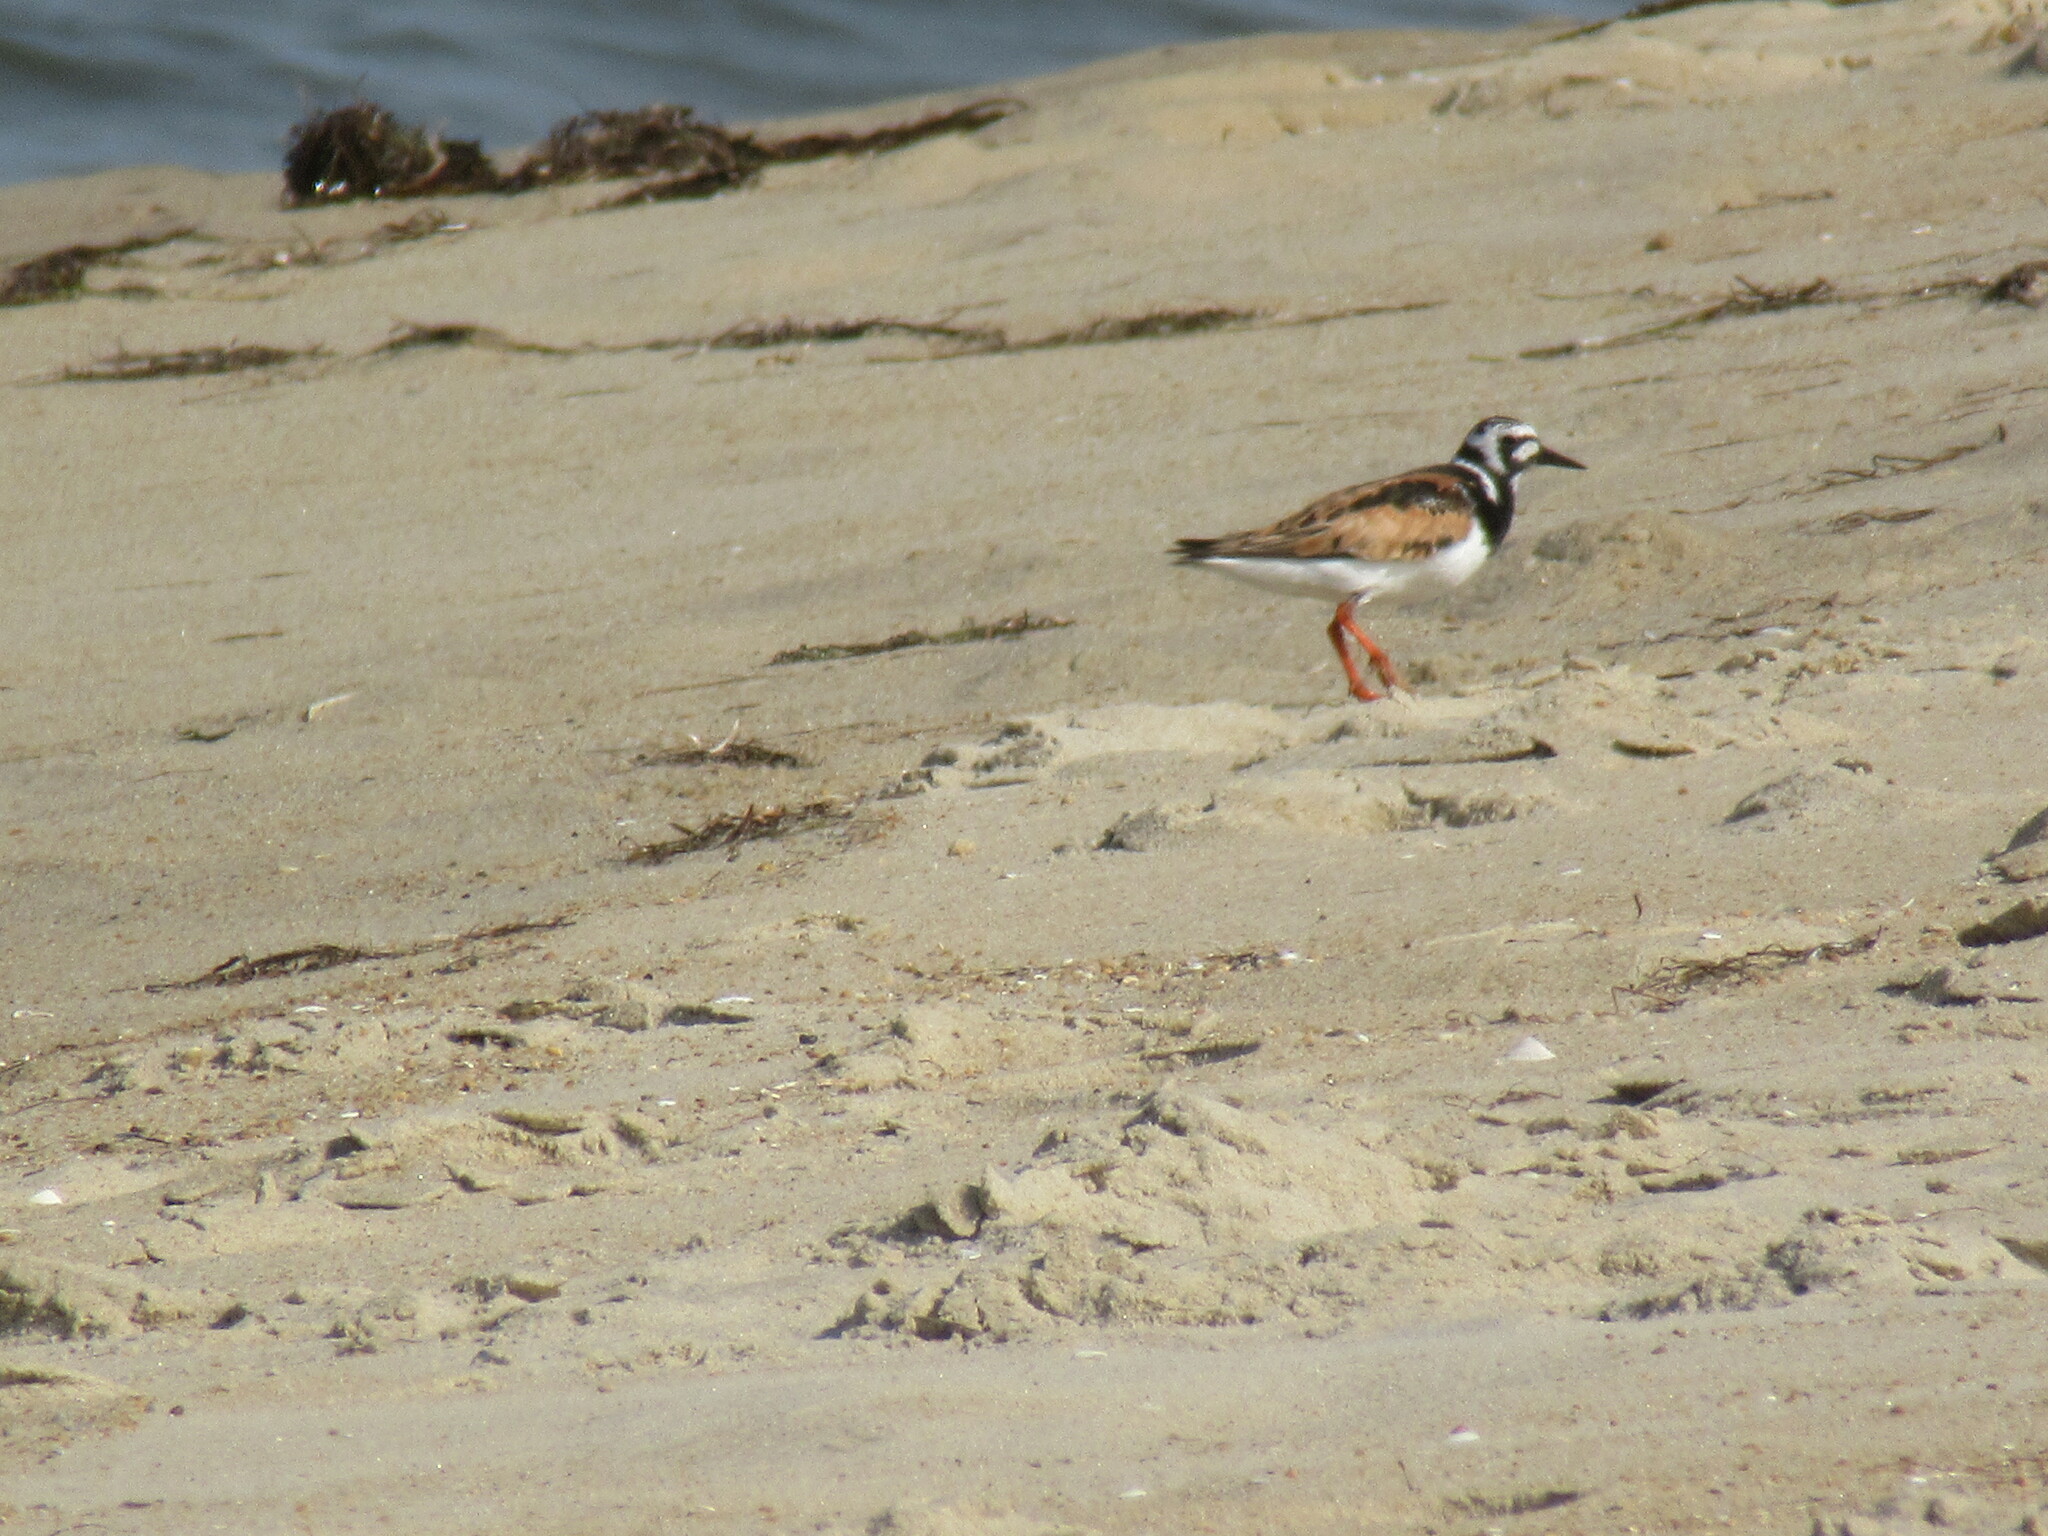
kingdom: Animalia
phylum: Chordata
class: Aves
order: Charadriiformes
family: Scolopacidae
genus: Arenaria
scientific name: Arenaria interpres
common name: Ruddy turnstone
